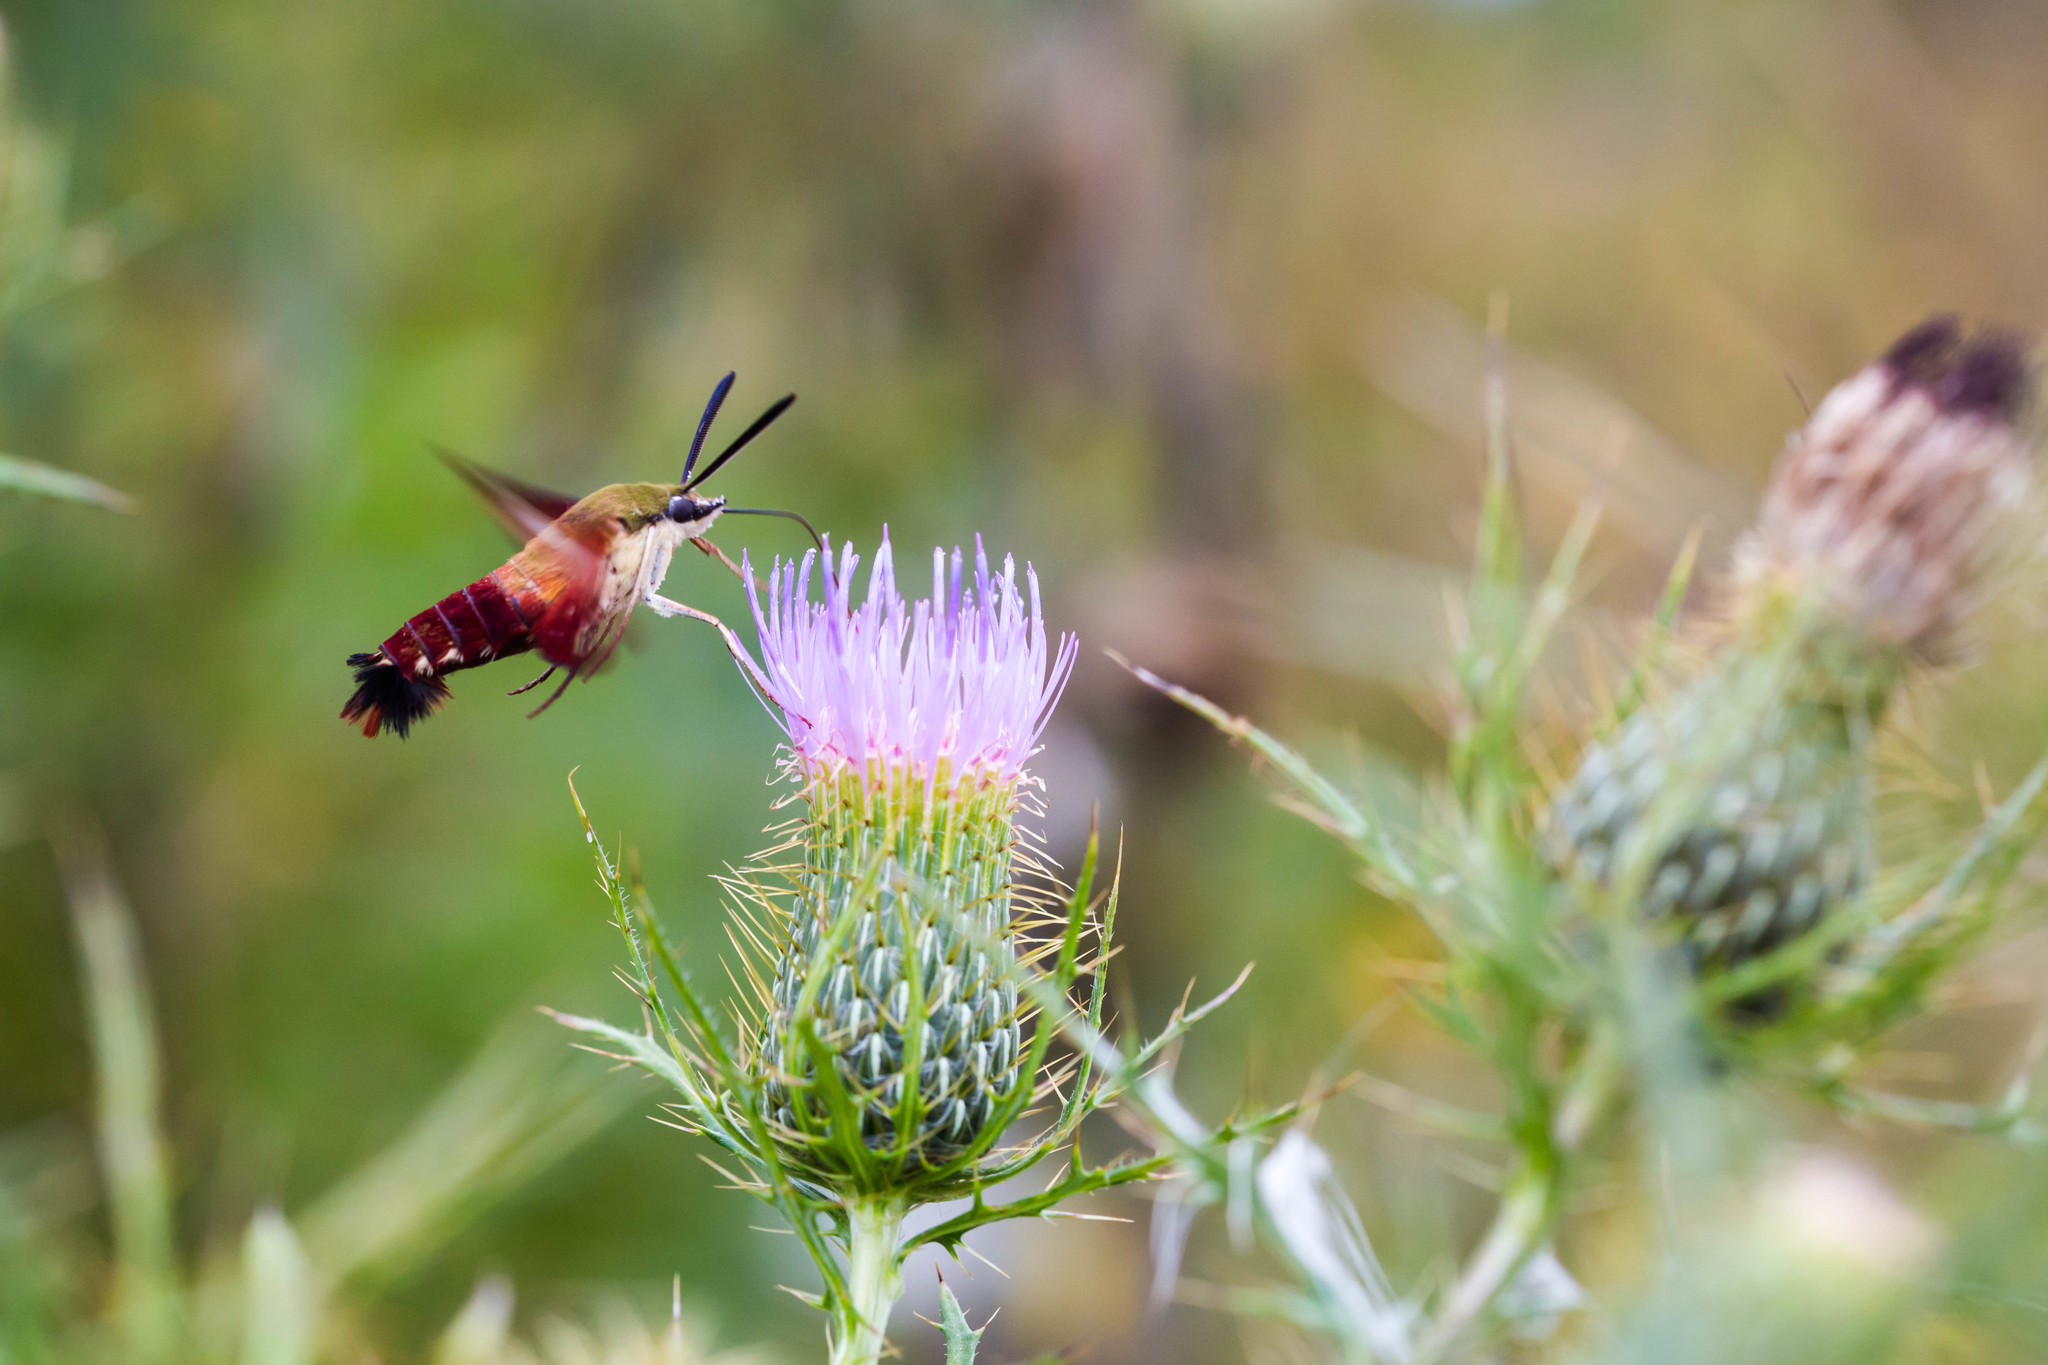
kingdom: Animalia
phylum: Arthropoda
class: Insecta
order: Lepidoptera
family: Sphingidae
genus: Hemaris
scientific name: Hemaris thysbe
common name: Common clear-wing
